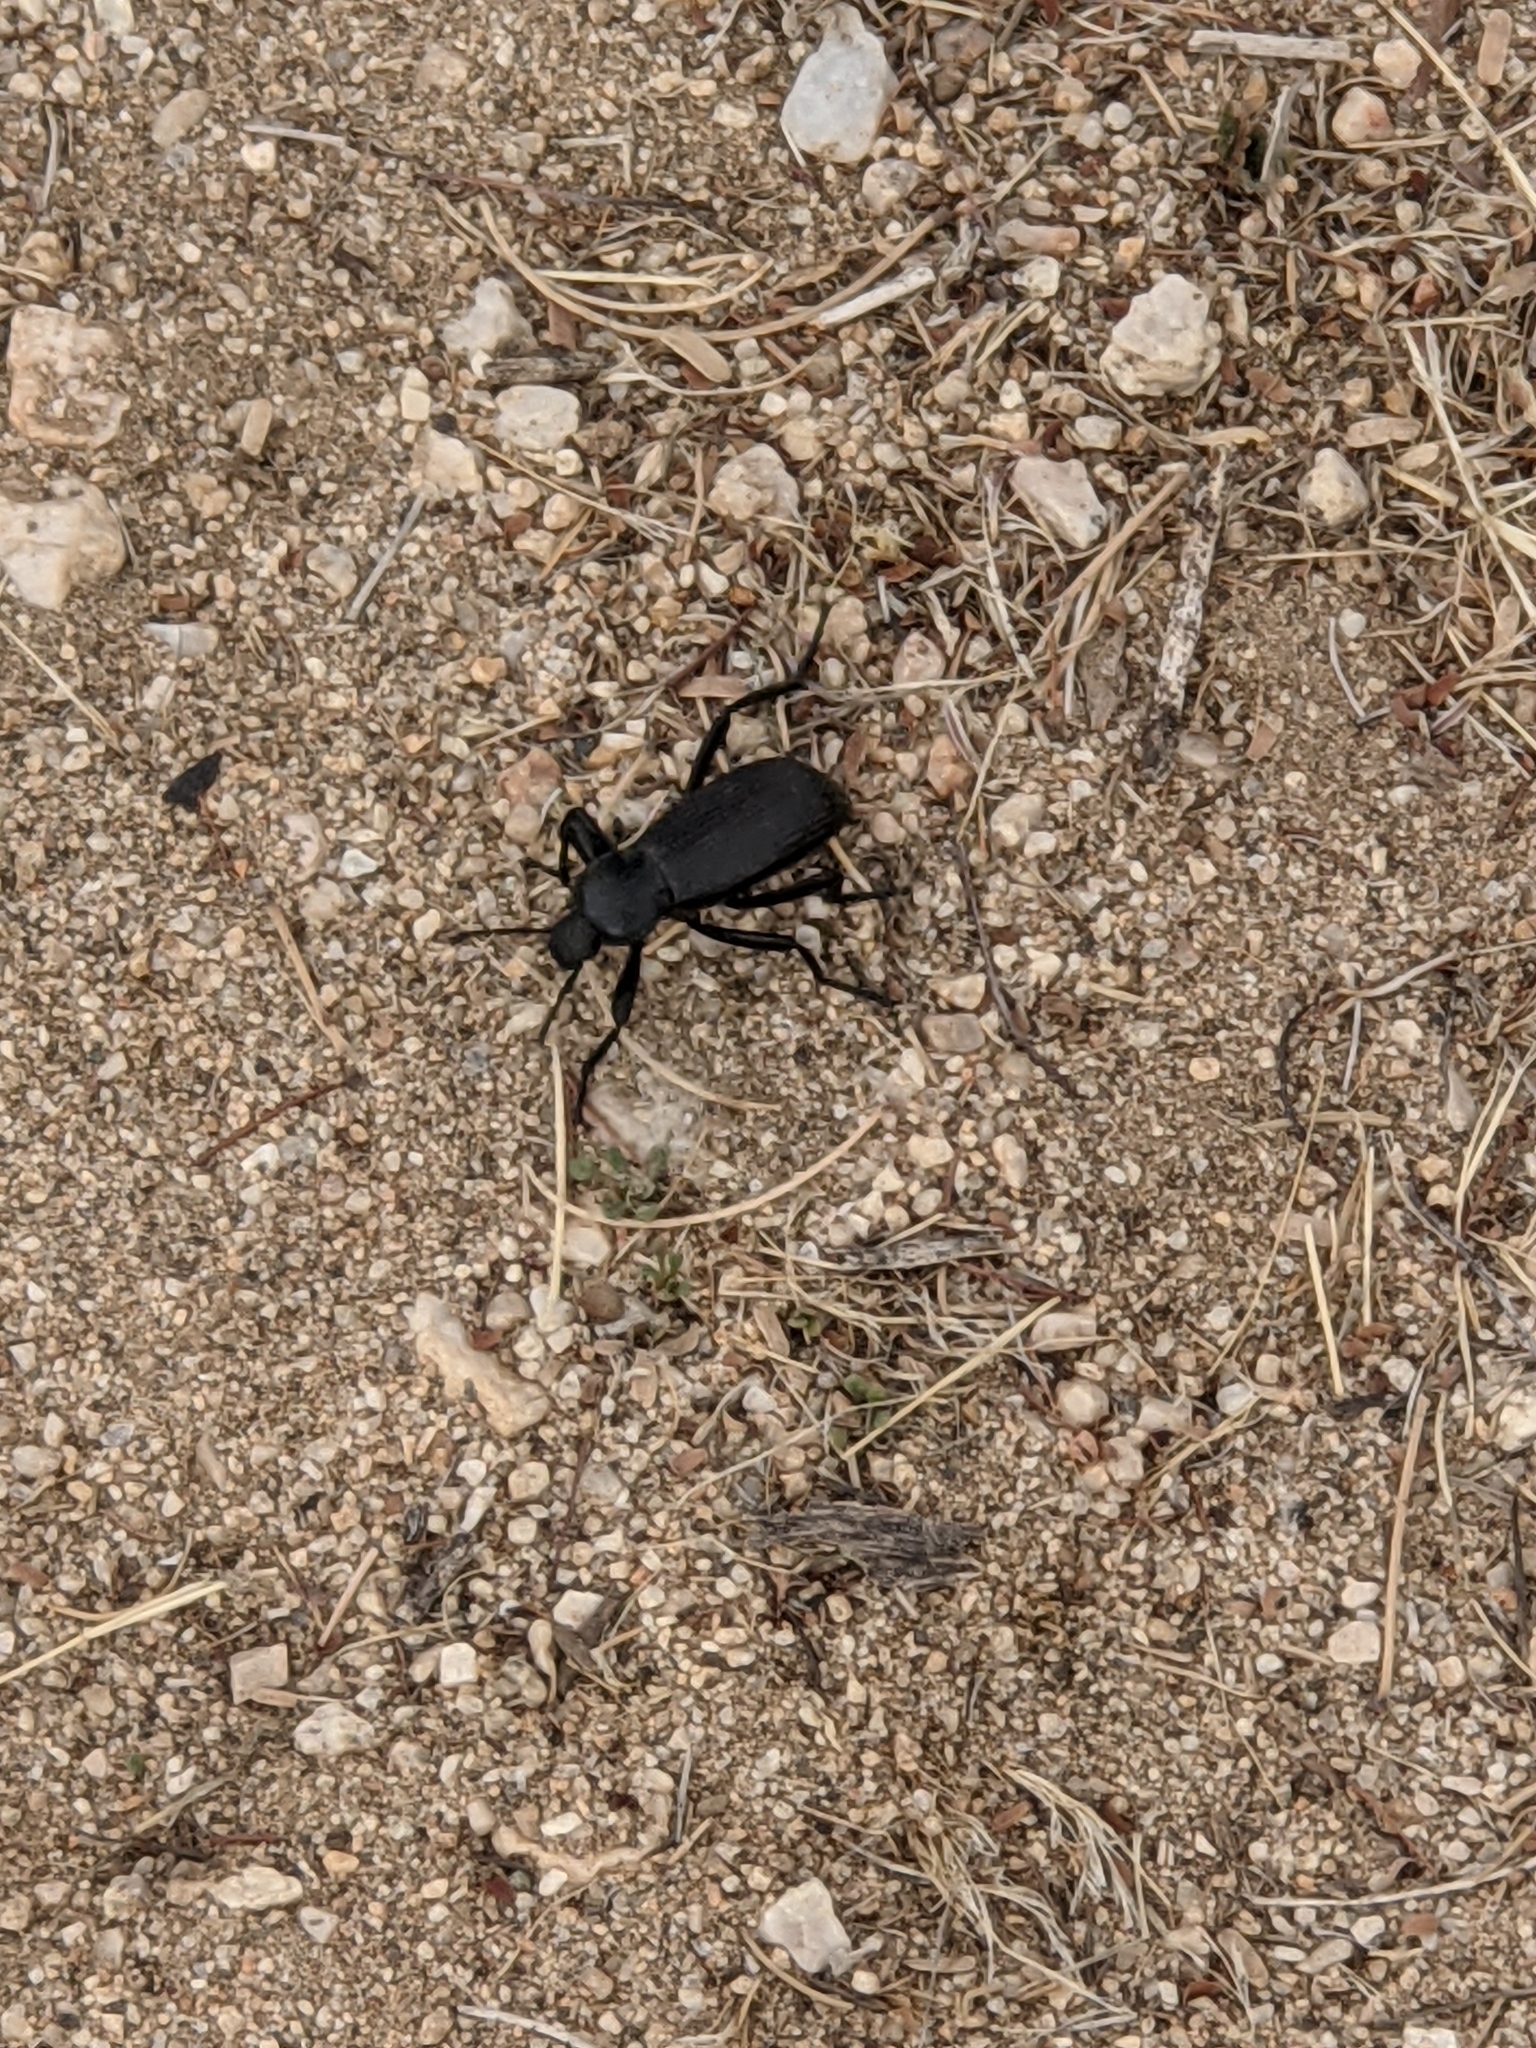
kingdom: Animalia
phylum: Arthropoda
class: Insecta
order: Coleoptera
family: Tenebrionidae
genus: Eleodes
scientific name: Eleodes obscura
